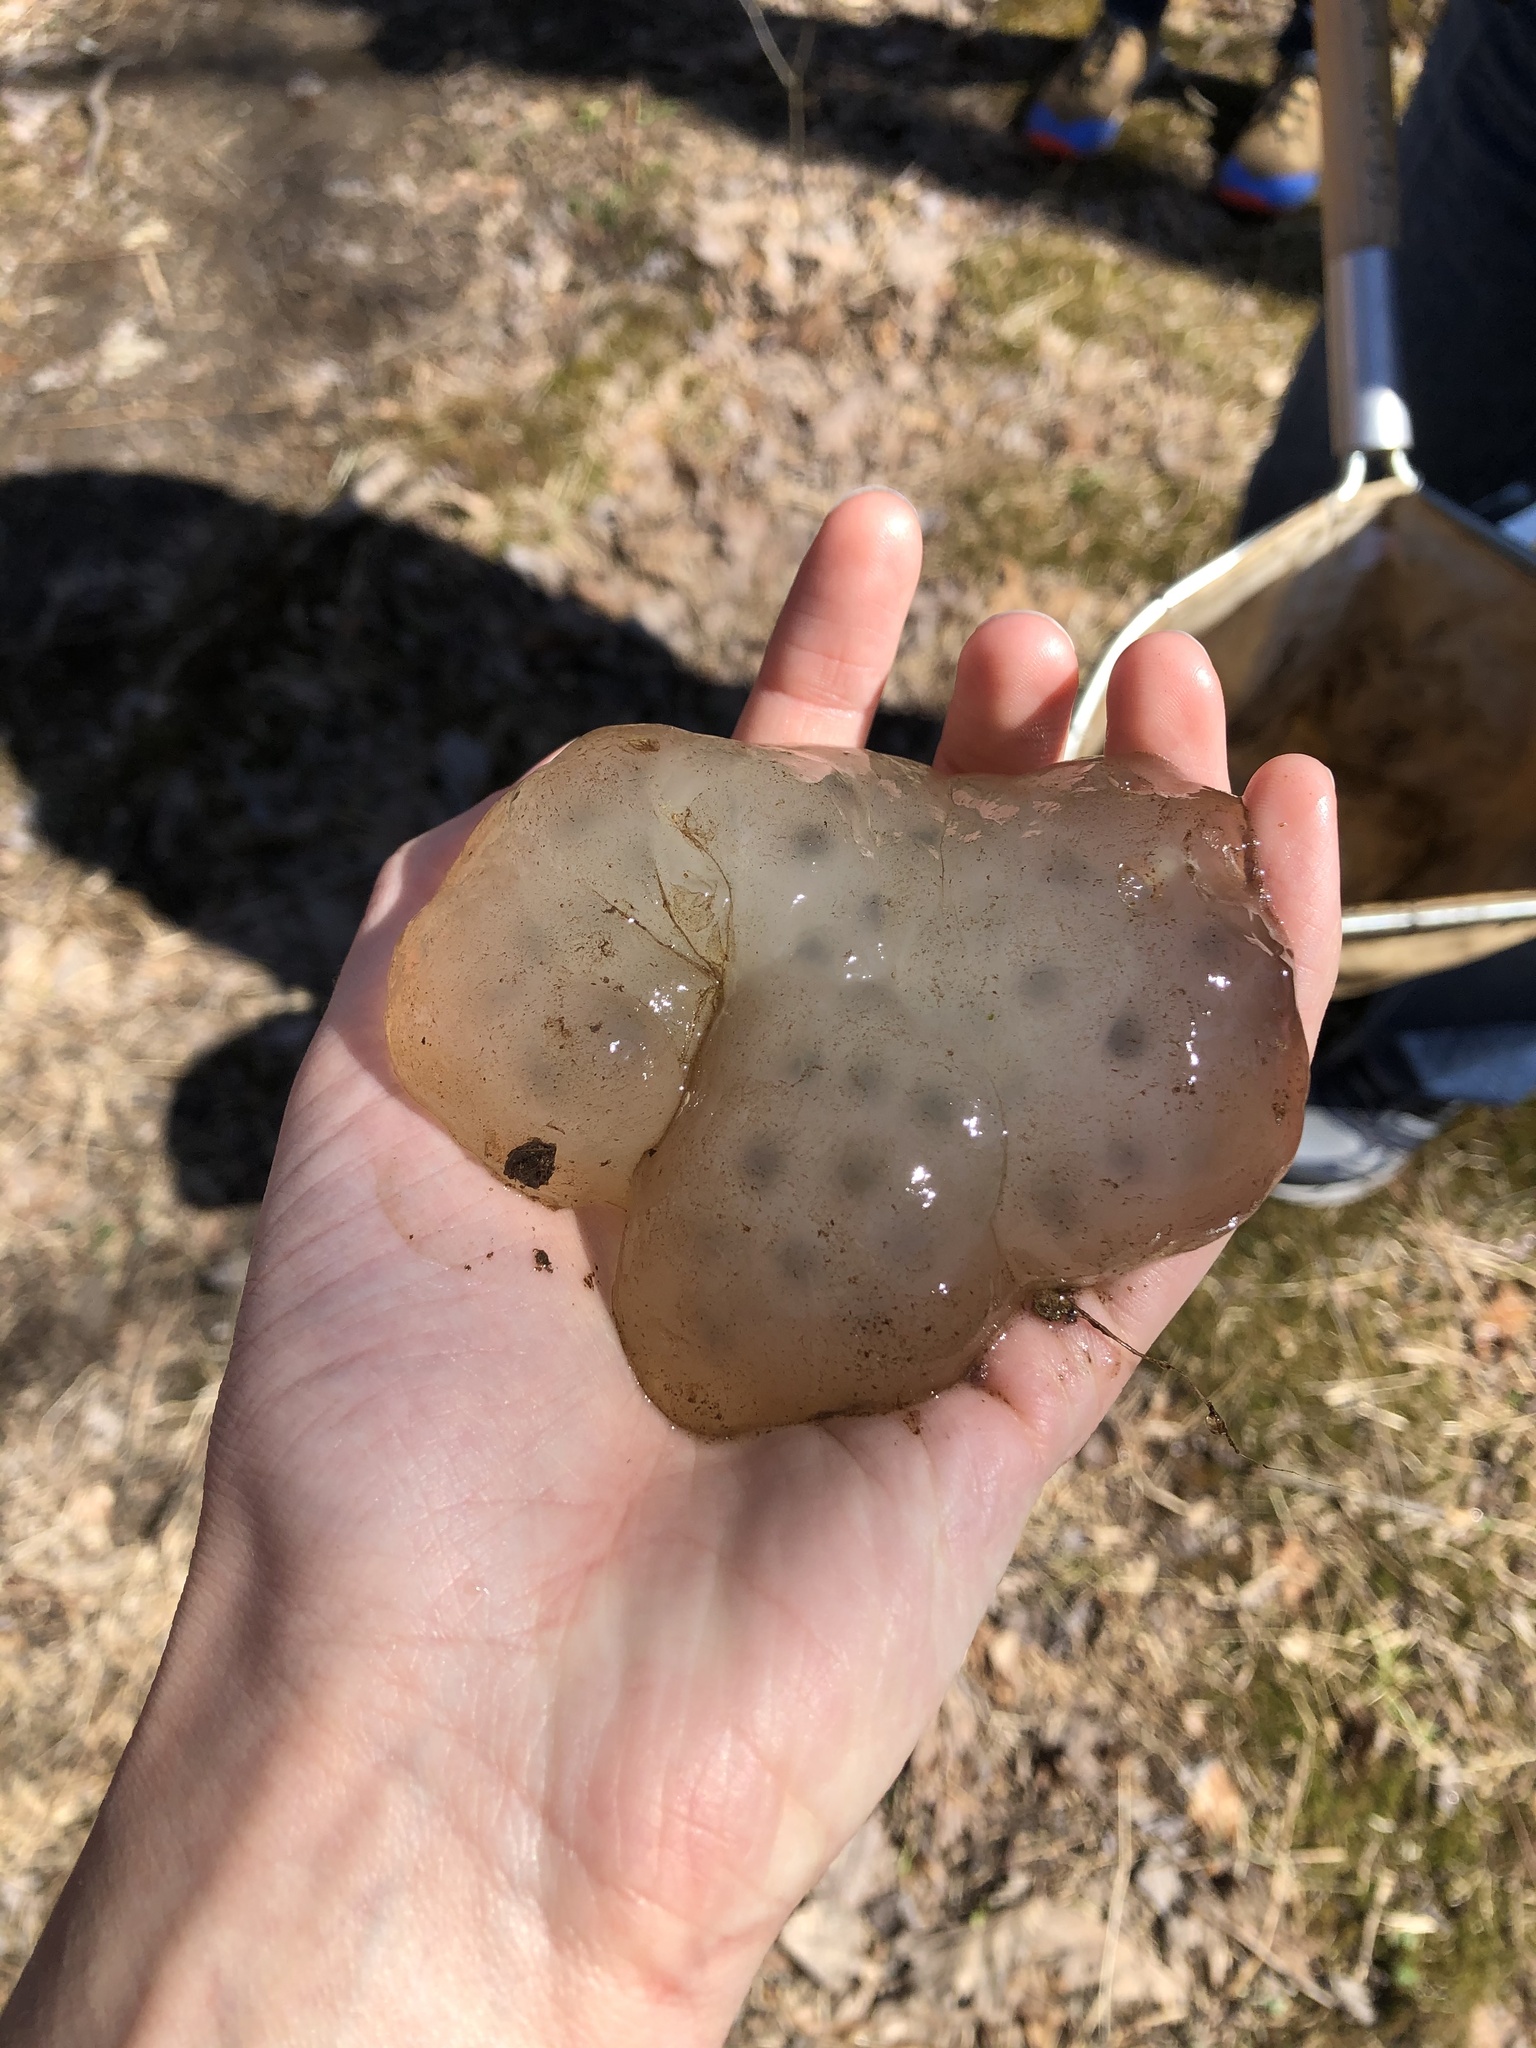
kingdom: Animalia
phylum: Chordata
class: Amphibia
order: Caudata
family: Ambystomatidae
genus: Ambystoma
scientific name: Ambystoma maculatum
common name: Spotted salamander
